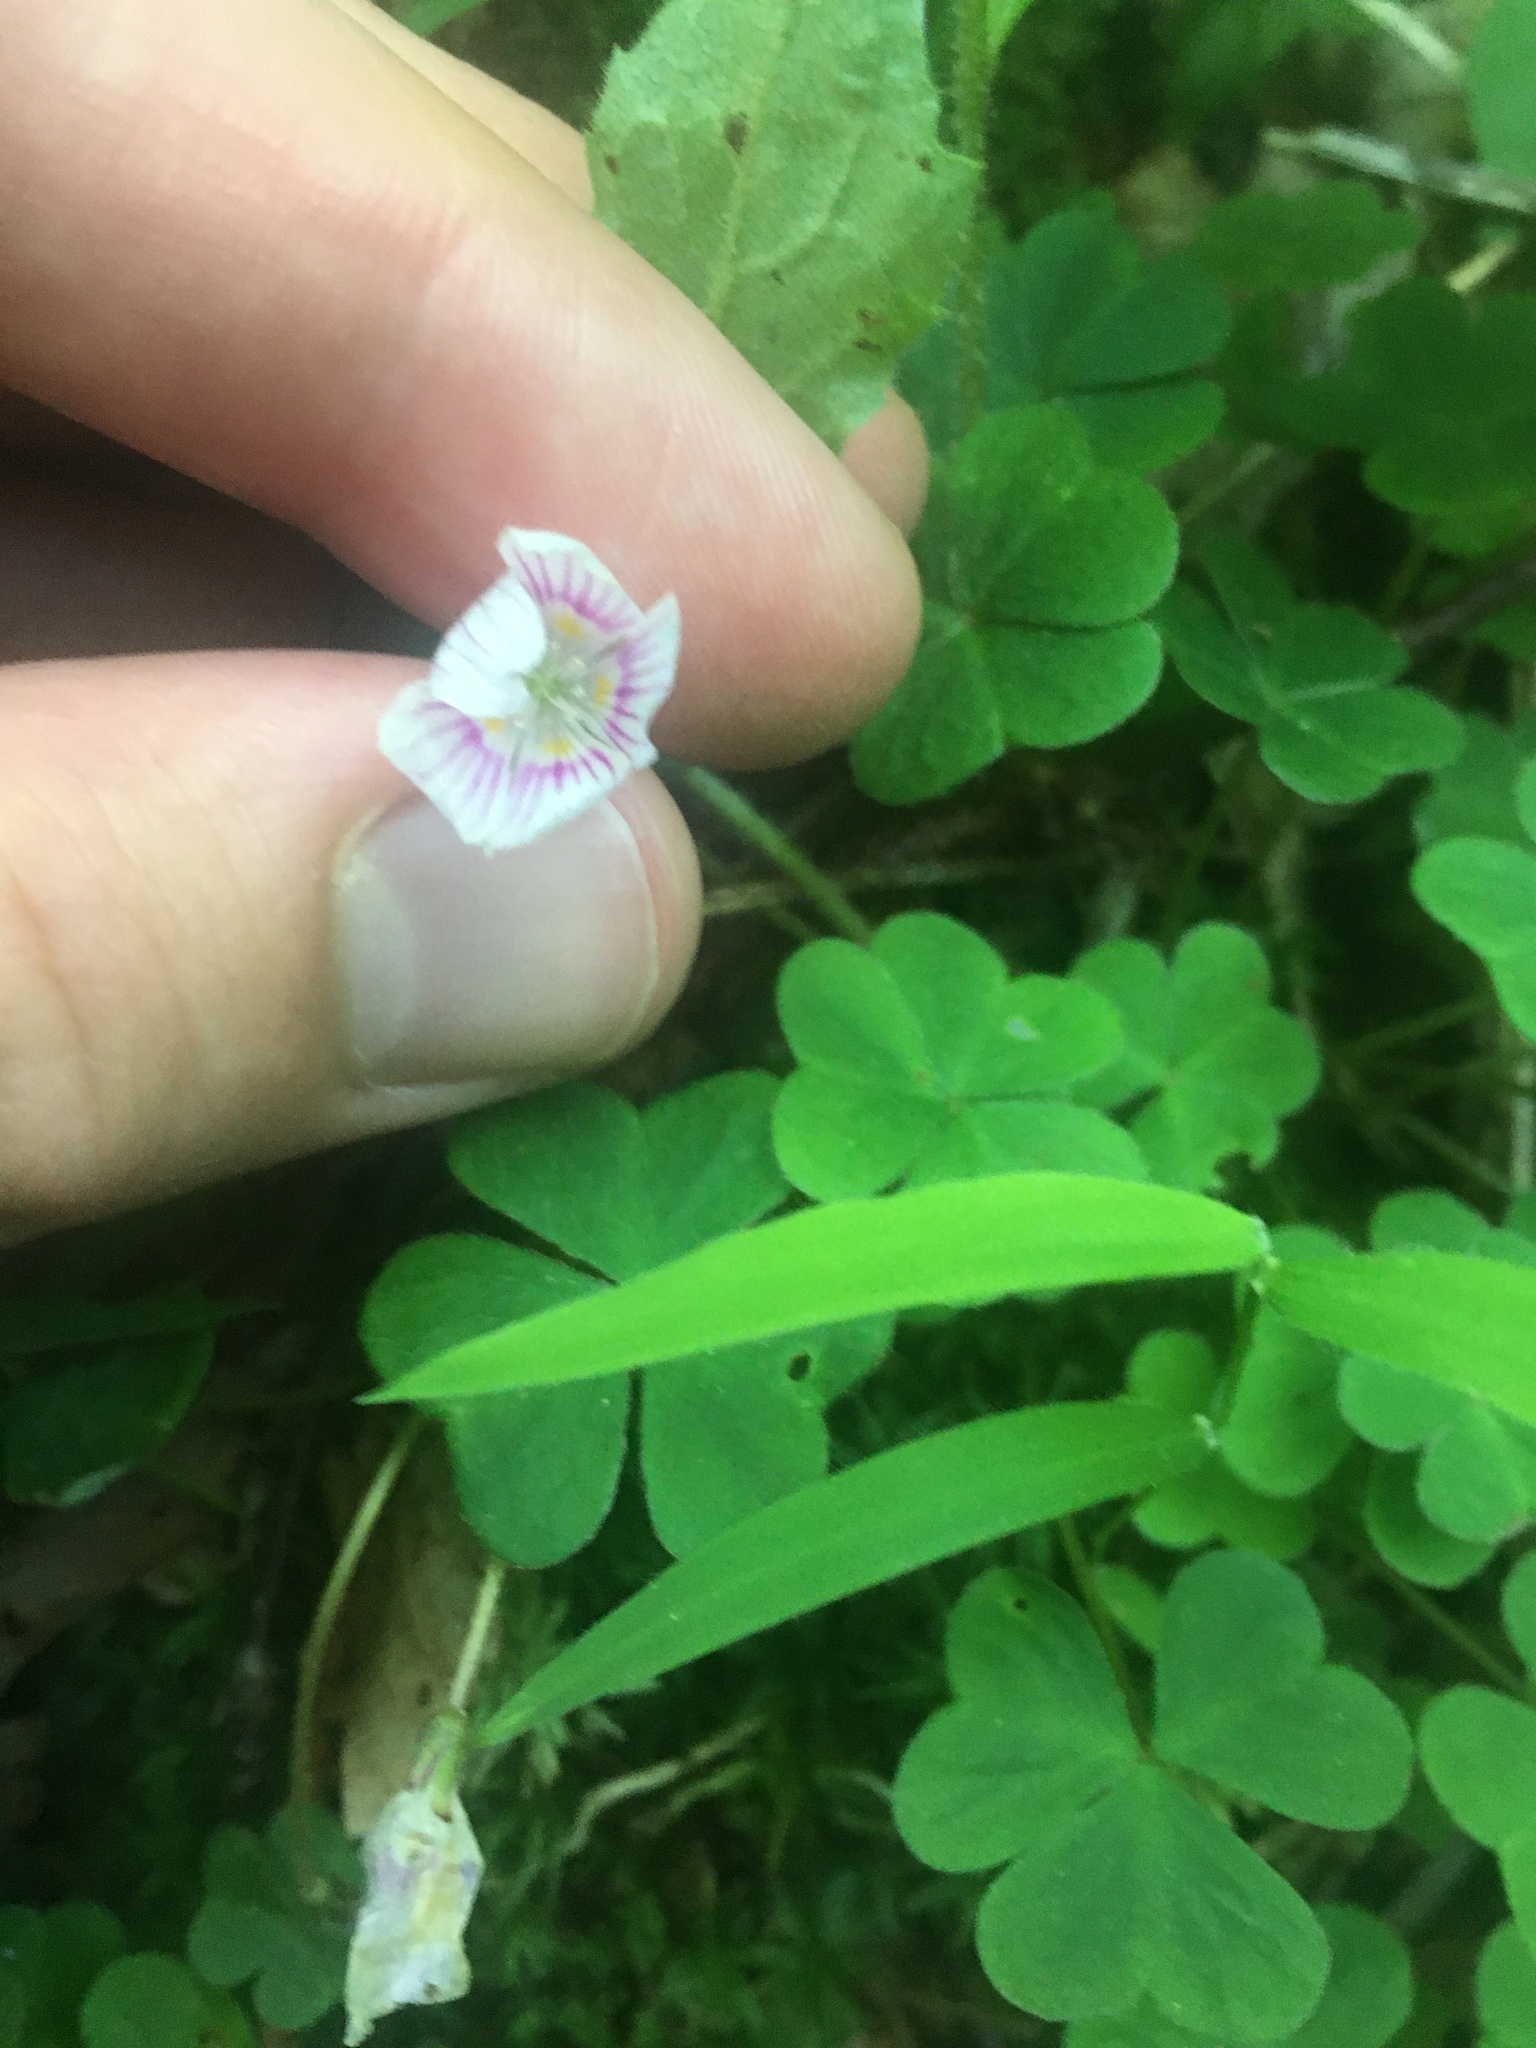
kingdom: Plantae
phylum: Tracheophyta
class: Magnoliopsida
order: Oxalidales
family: Oxalidaceae
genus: Oxalis
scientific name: Oxalis montana
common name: American wood-sorrel
